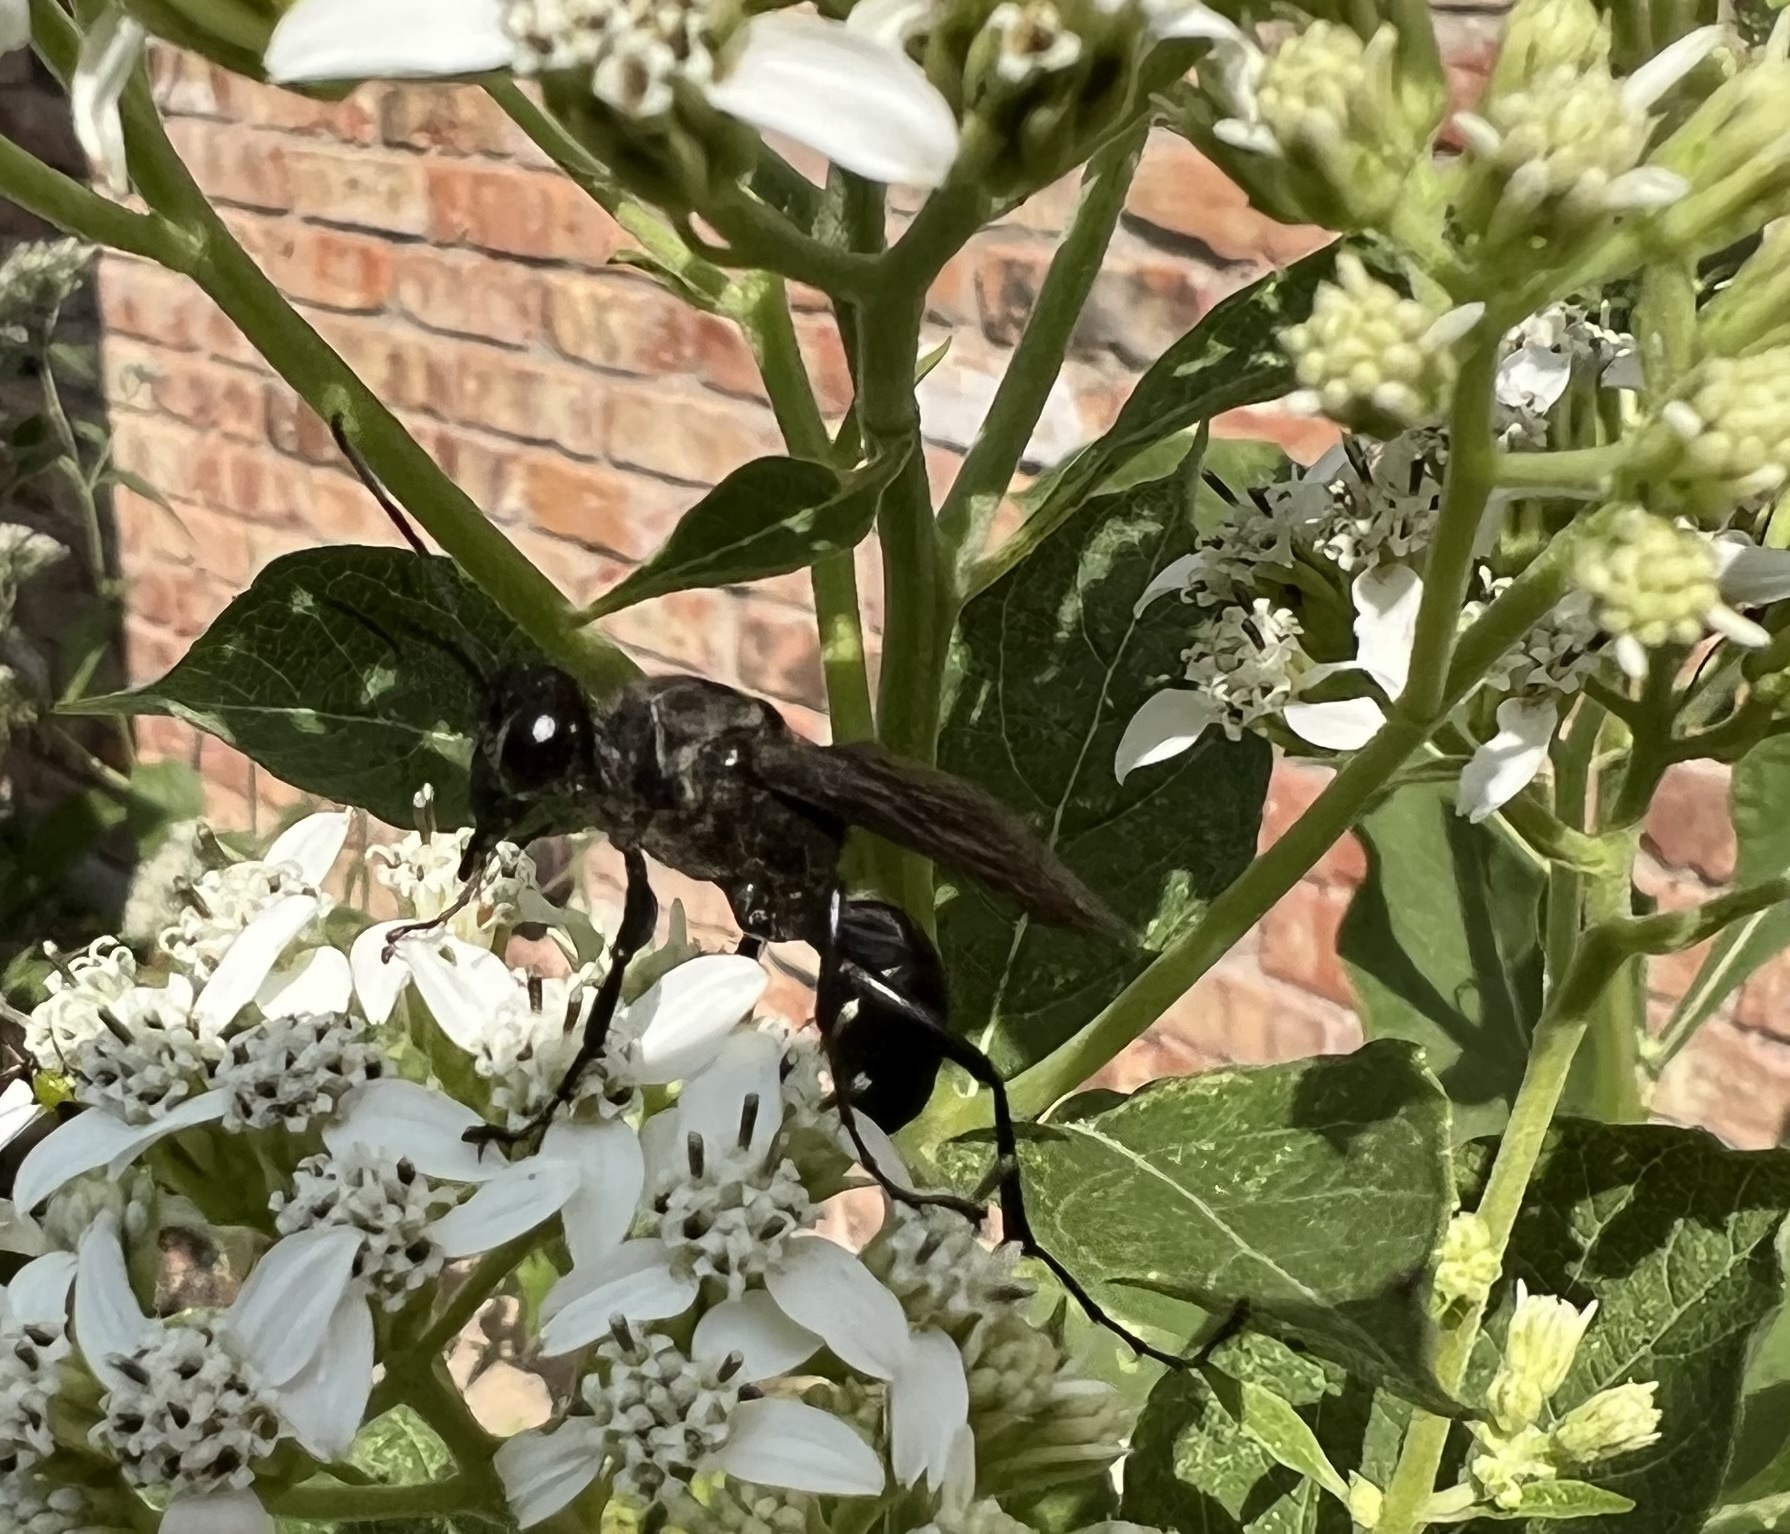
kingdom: Animalia
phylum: Arthropoda
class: Insecta
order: Hymenoptera
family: Sphecidae
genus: Sphex
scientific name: Sphex pensylvanicus
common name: Great black digger wasp
